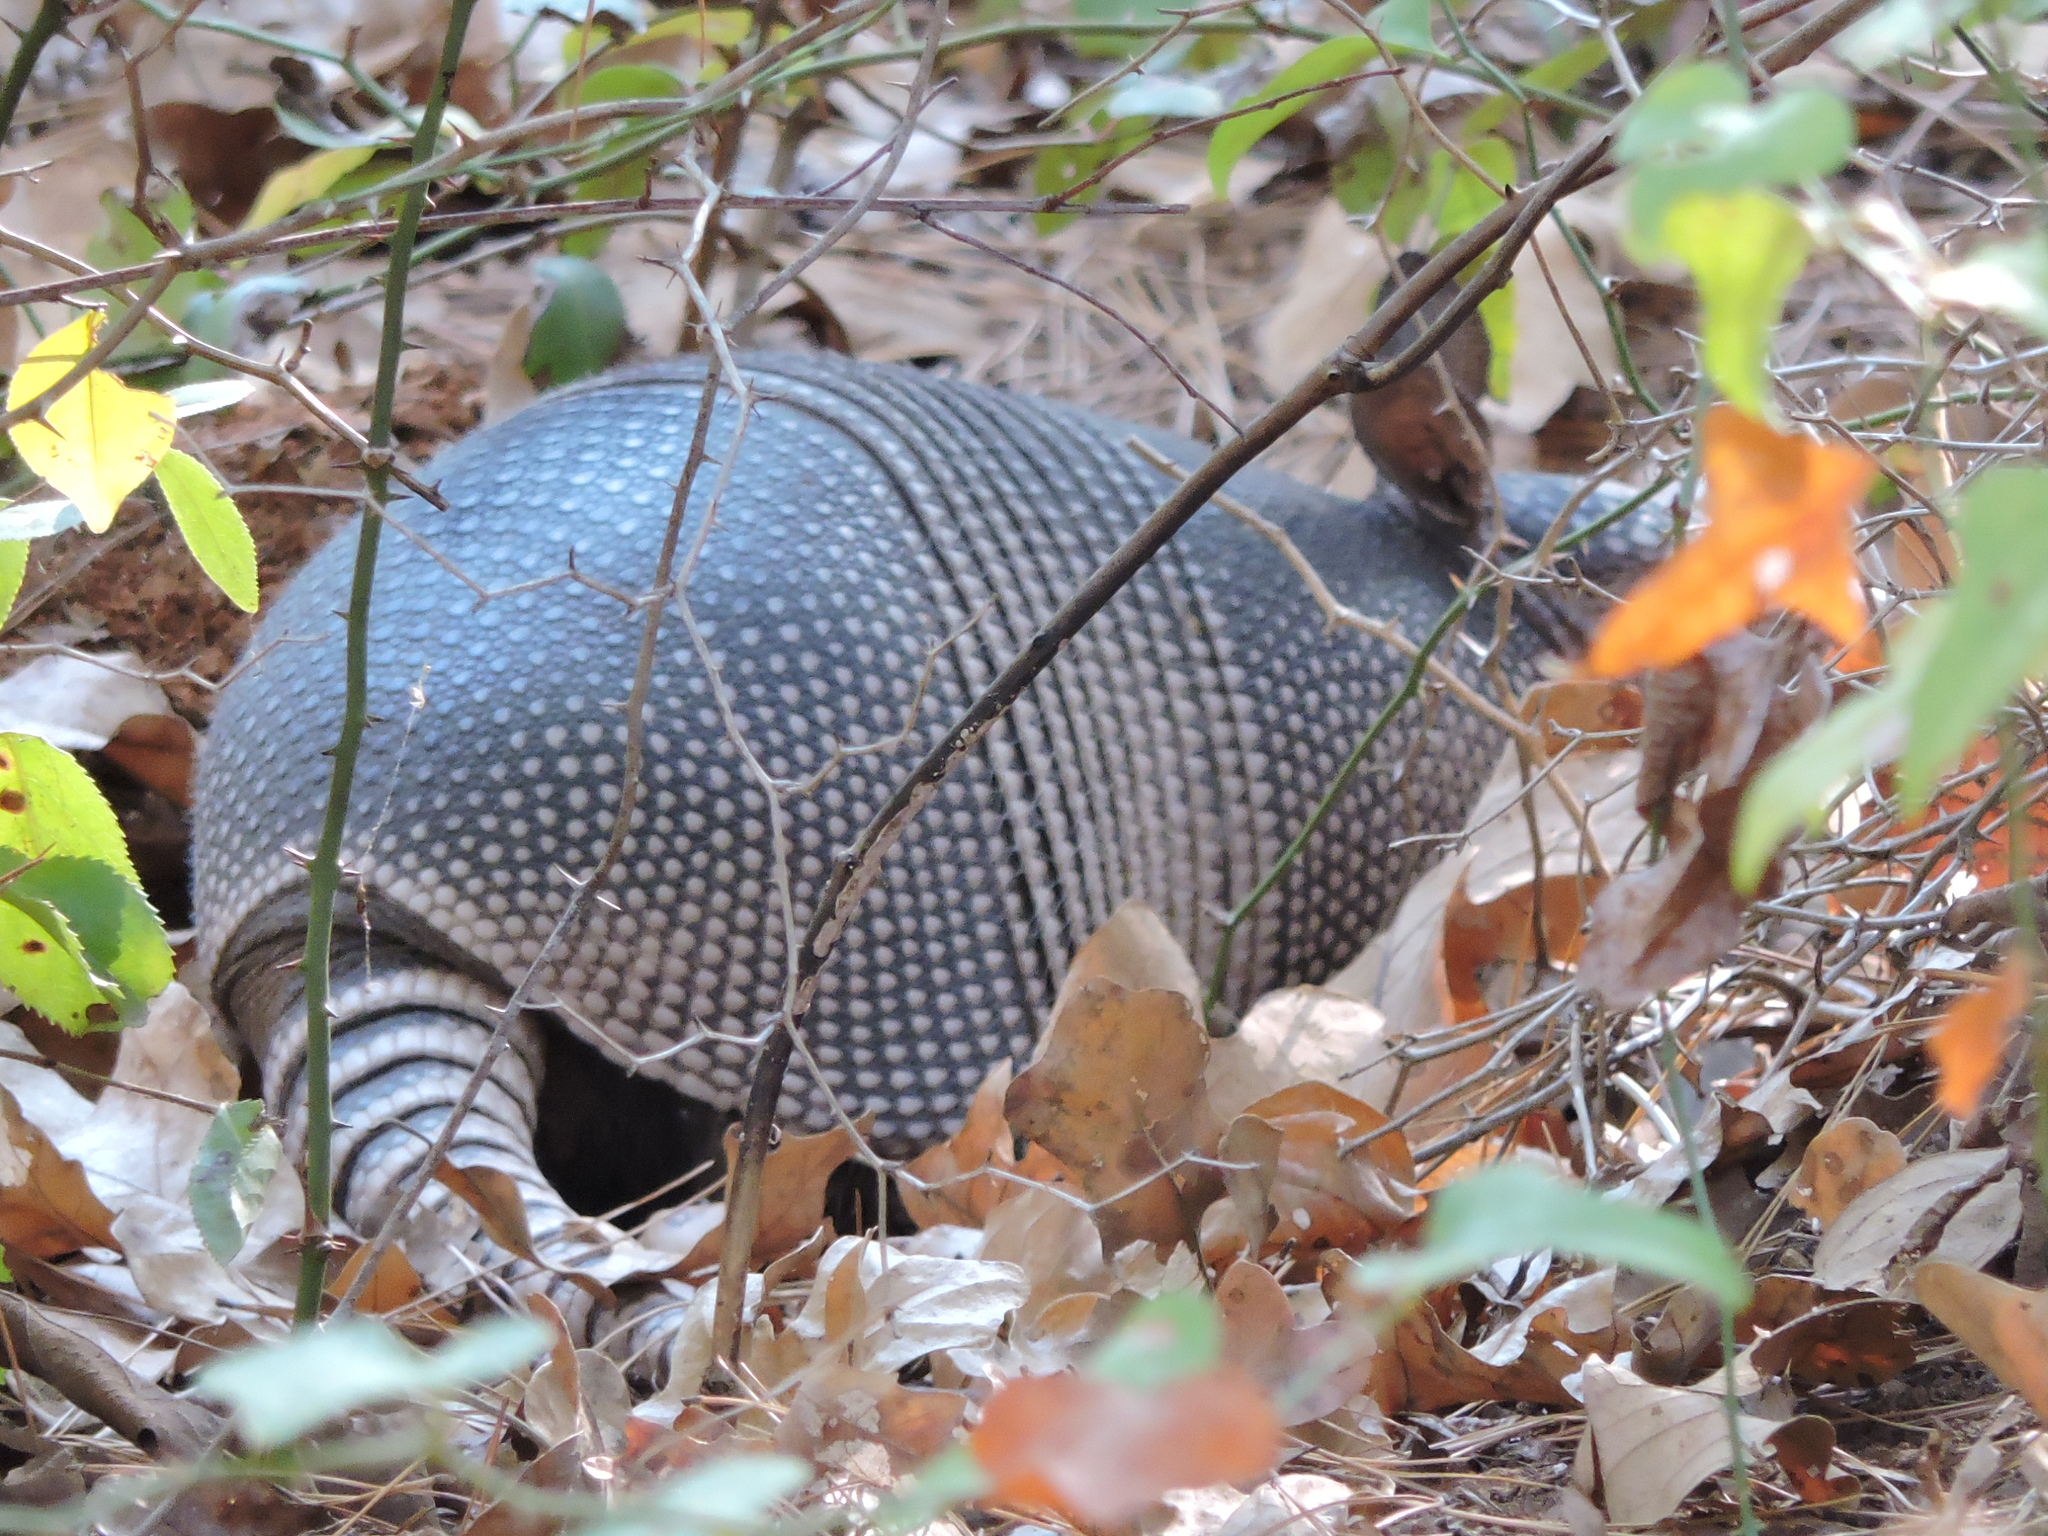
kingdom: Animalia
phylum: Chordata
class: Mammalia
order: Cingulata
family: Dasypodidae
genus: Dasypus
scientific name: Dasypus novemcinctus
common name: Nine-banded armadillo
